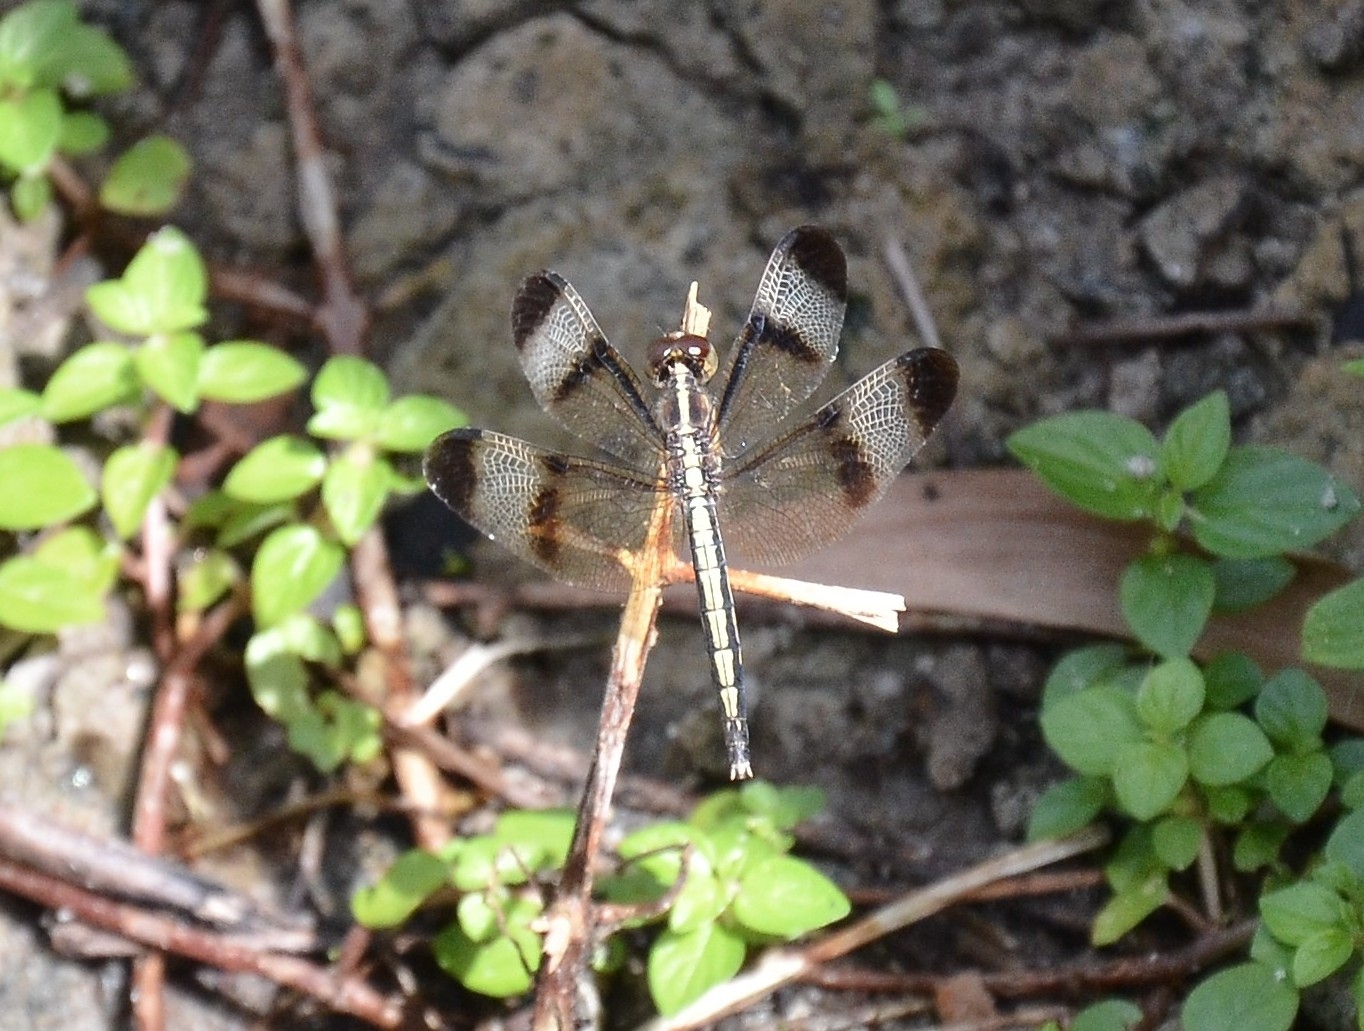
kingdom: Animalia
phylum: Arthropoda
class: Insecta
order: Odonata
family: Libellulidae
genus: Neurothemis
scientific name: Neurothemis tullia
